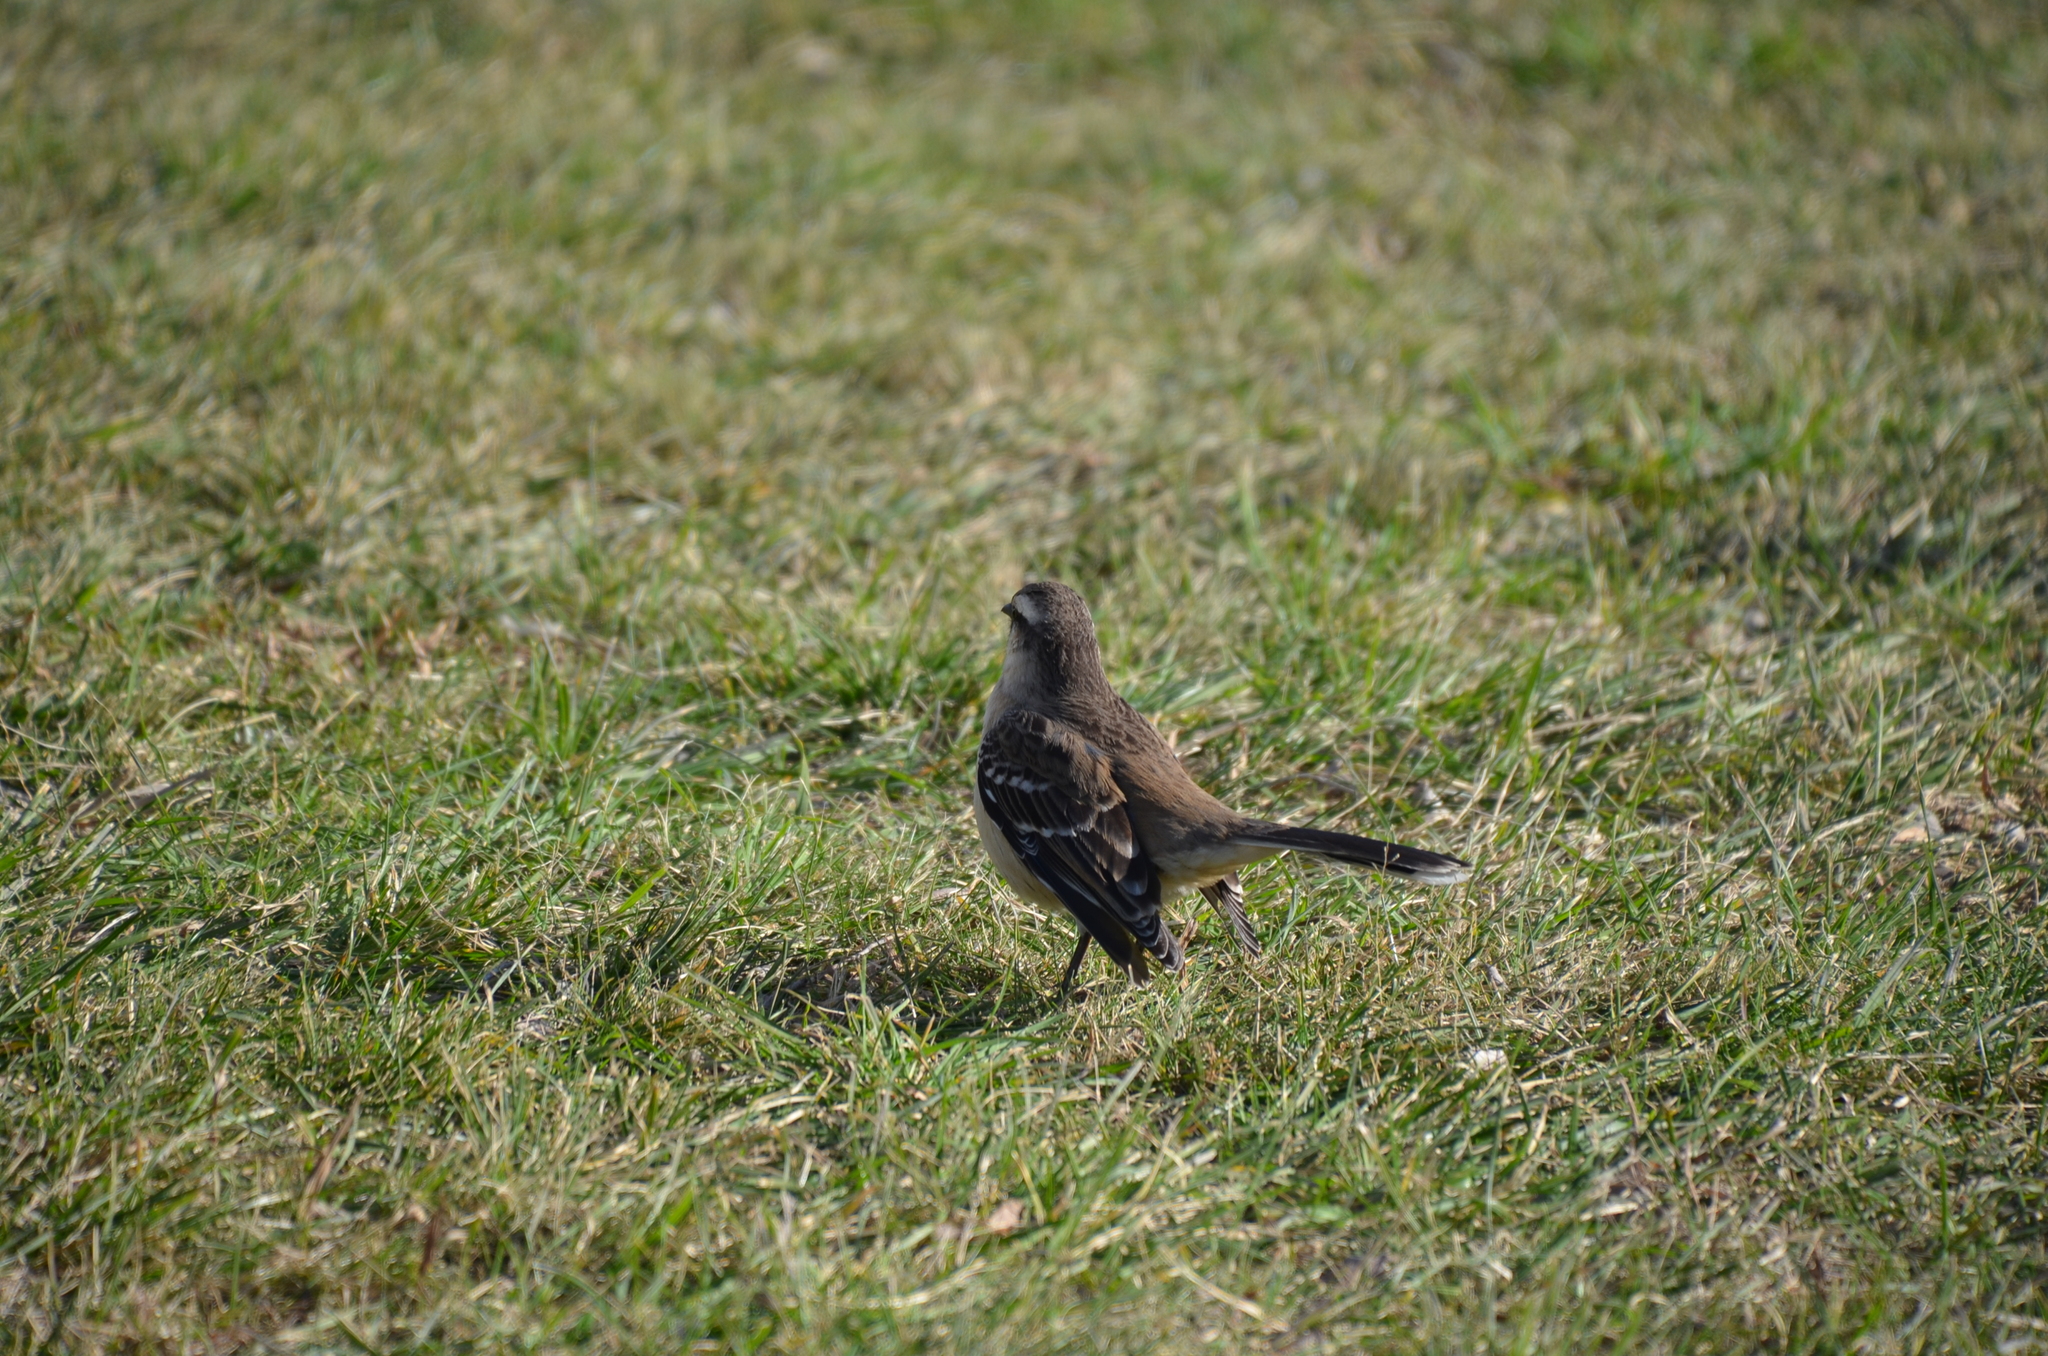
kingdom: Animalia
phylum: Chordata
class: Aves
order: Passeriformes
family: Mimidae
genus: Mimus
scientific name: Mimus saturninus
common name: Chalk-browed mockingbird
